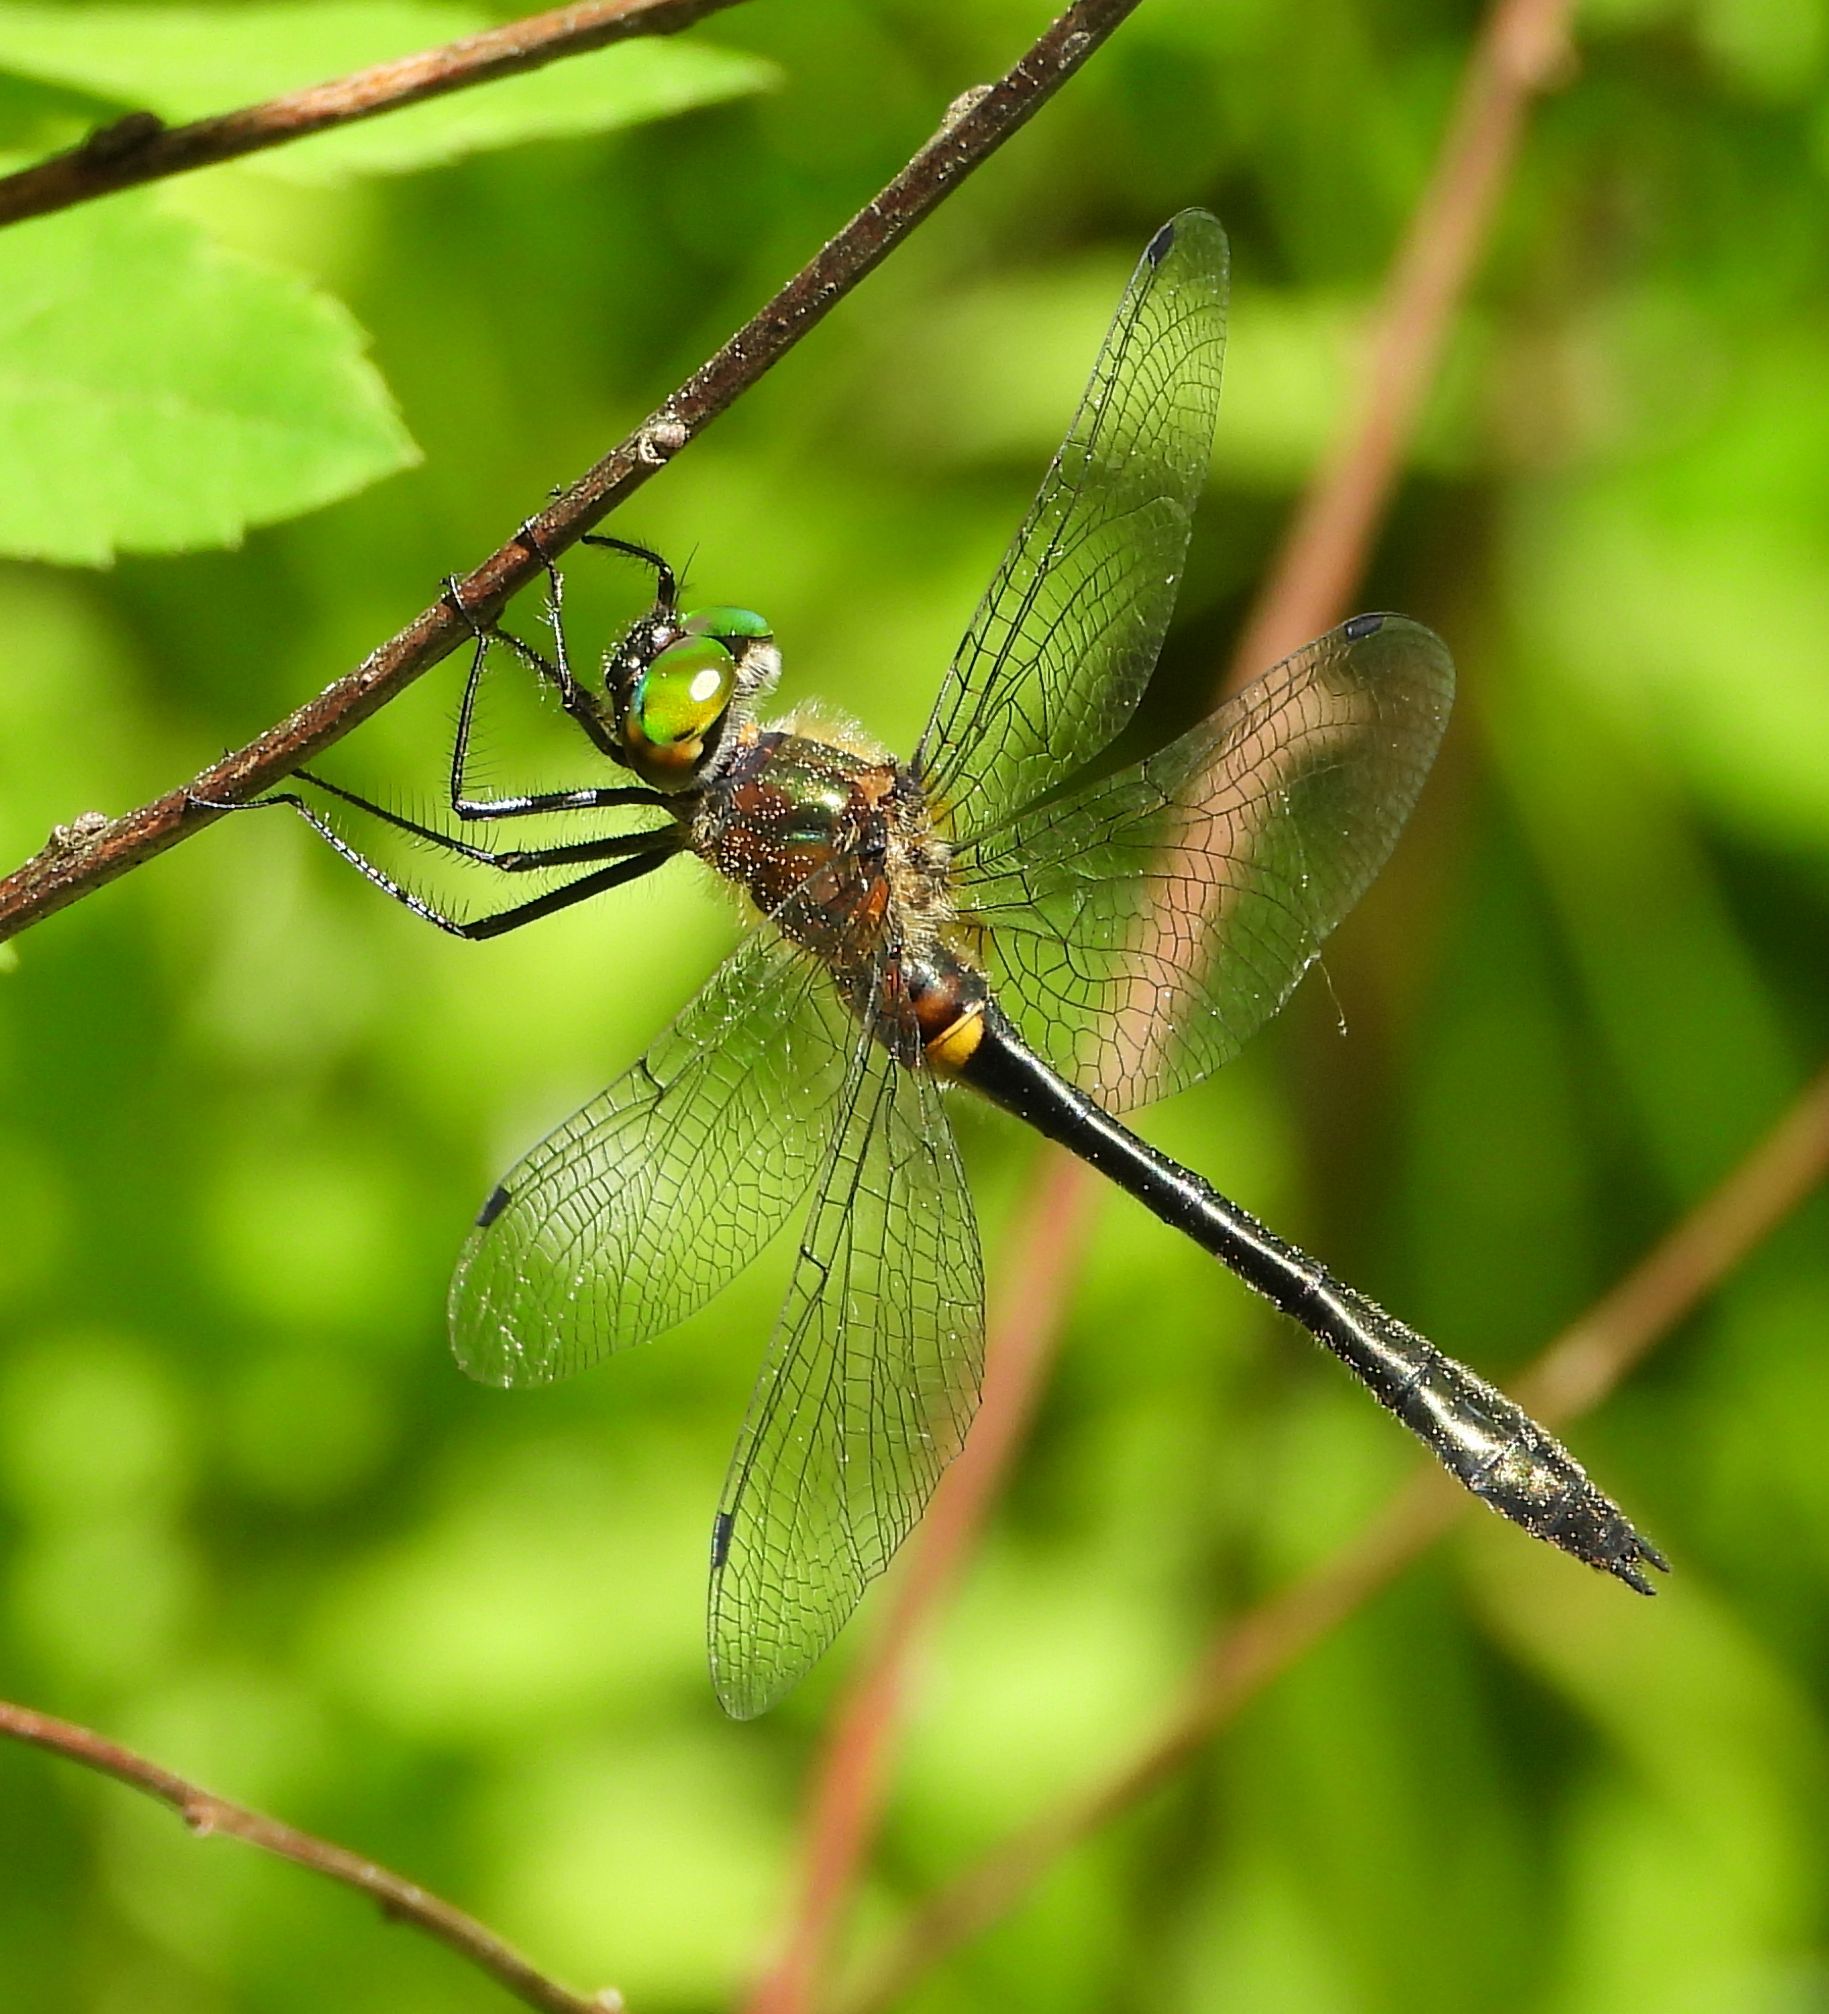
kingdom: Animalia
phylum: Arthropoda
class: Insecta
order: Odonata
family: Corduliidae
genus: Dorocordulia
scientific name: Dorocordulia libera
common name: Racket-tailed emerald
